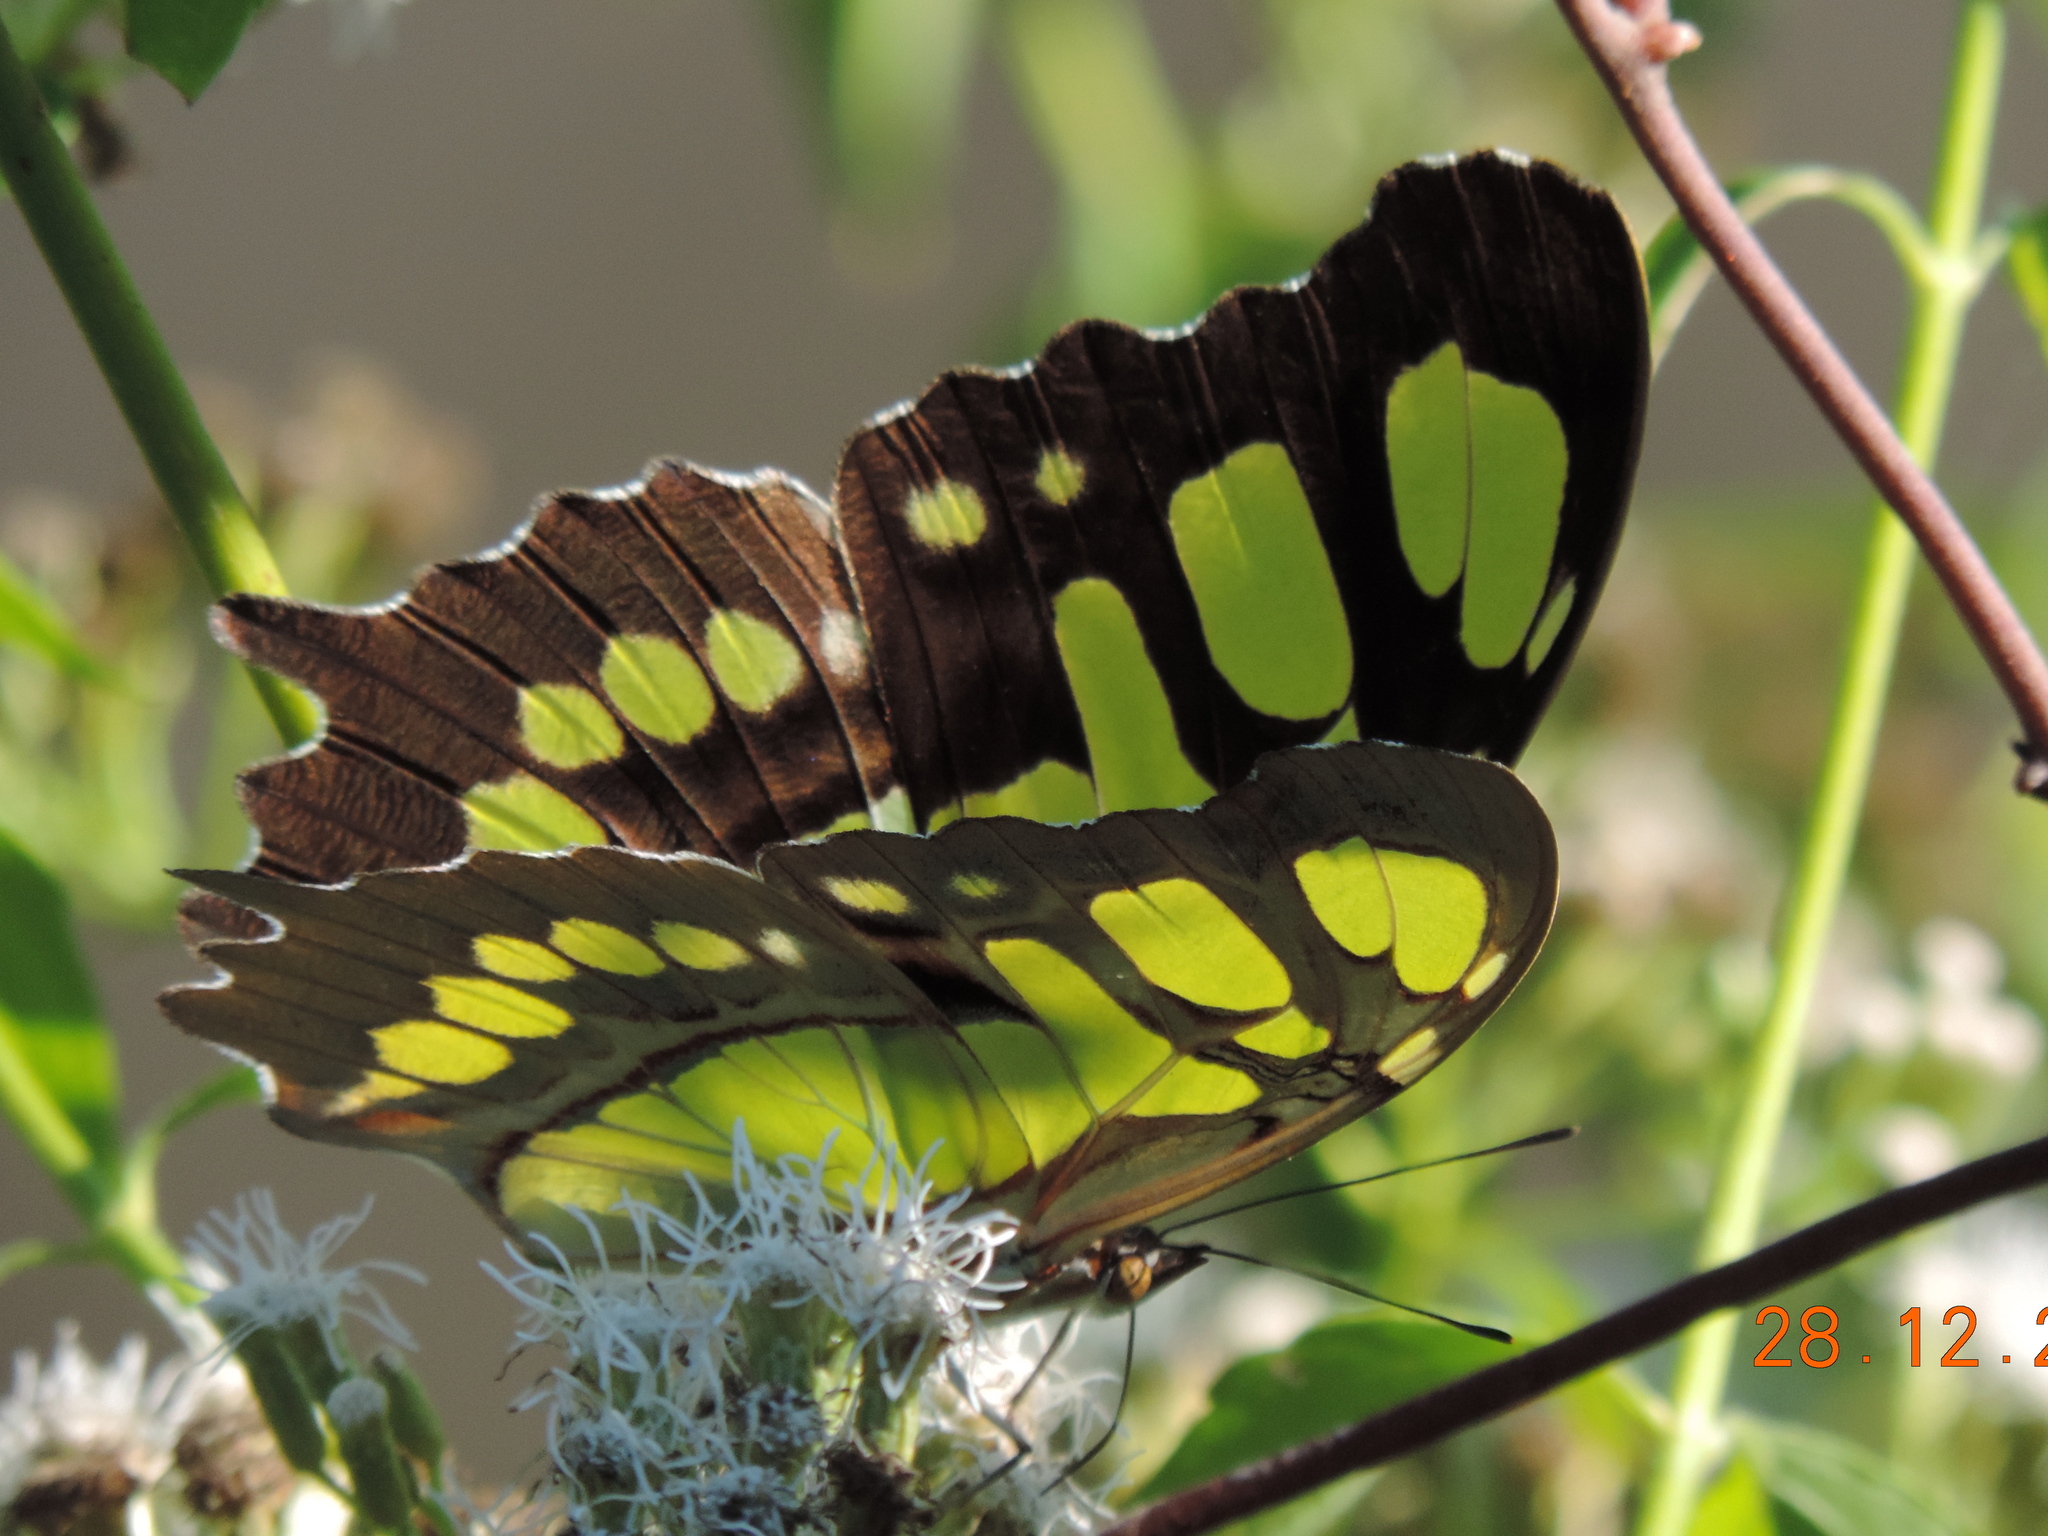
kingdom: Animalia
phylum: Arthropoda
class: Insecta
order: Lepidoptera
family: Nymphalidae
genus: Siproeta
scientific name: Siproeta stelenes
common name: Malachite
